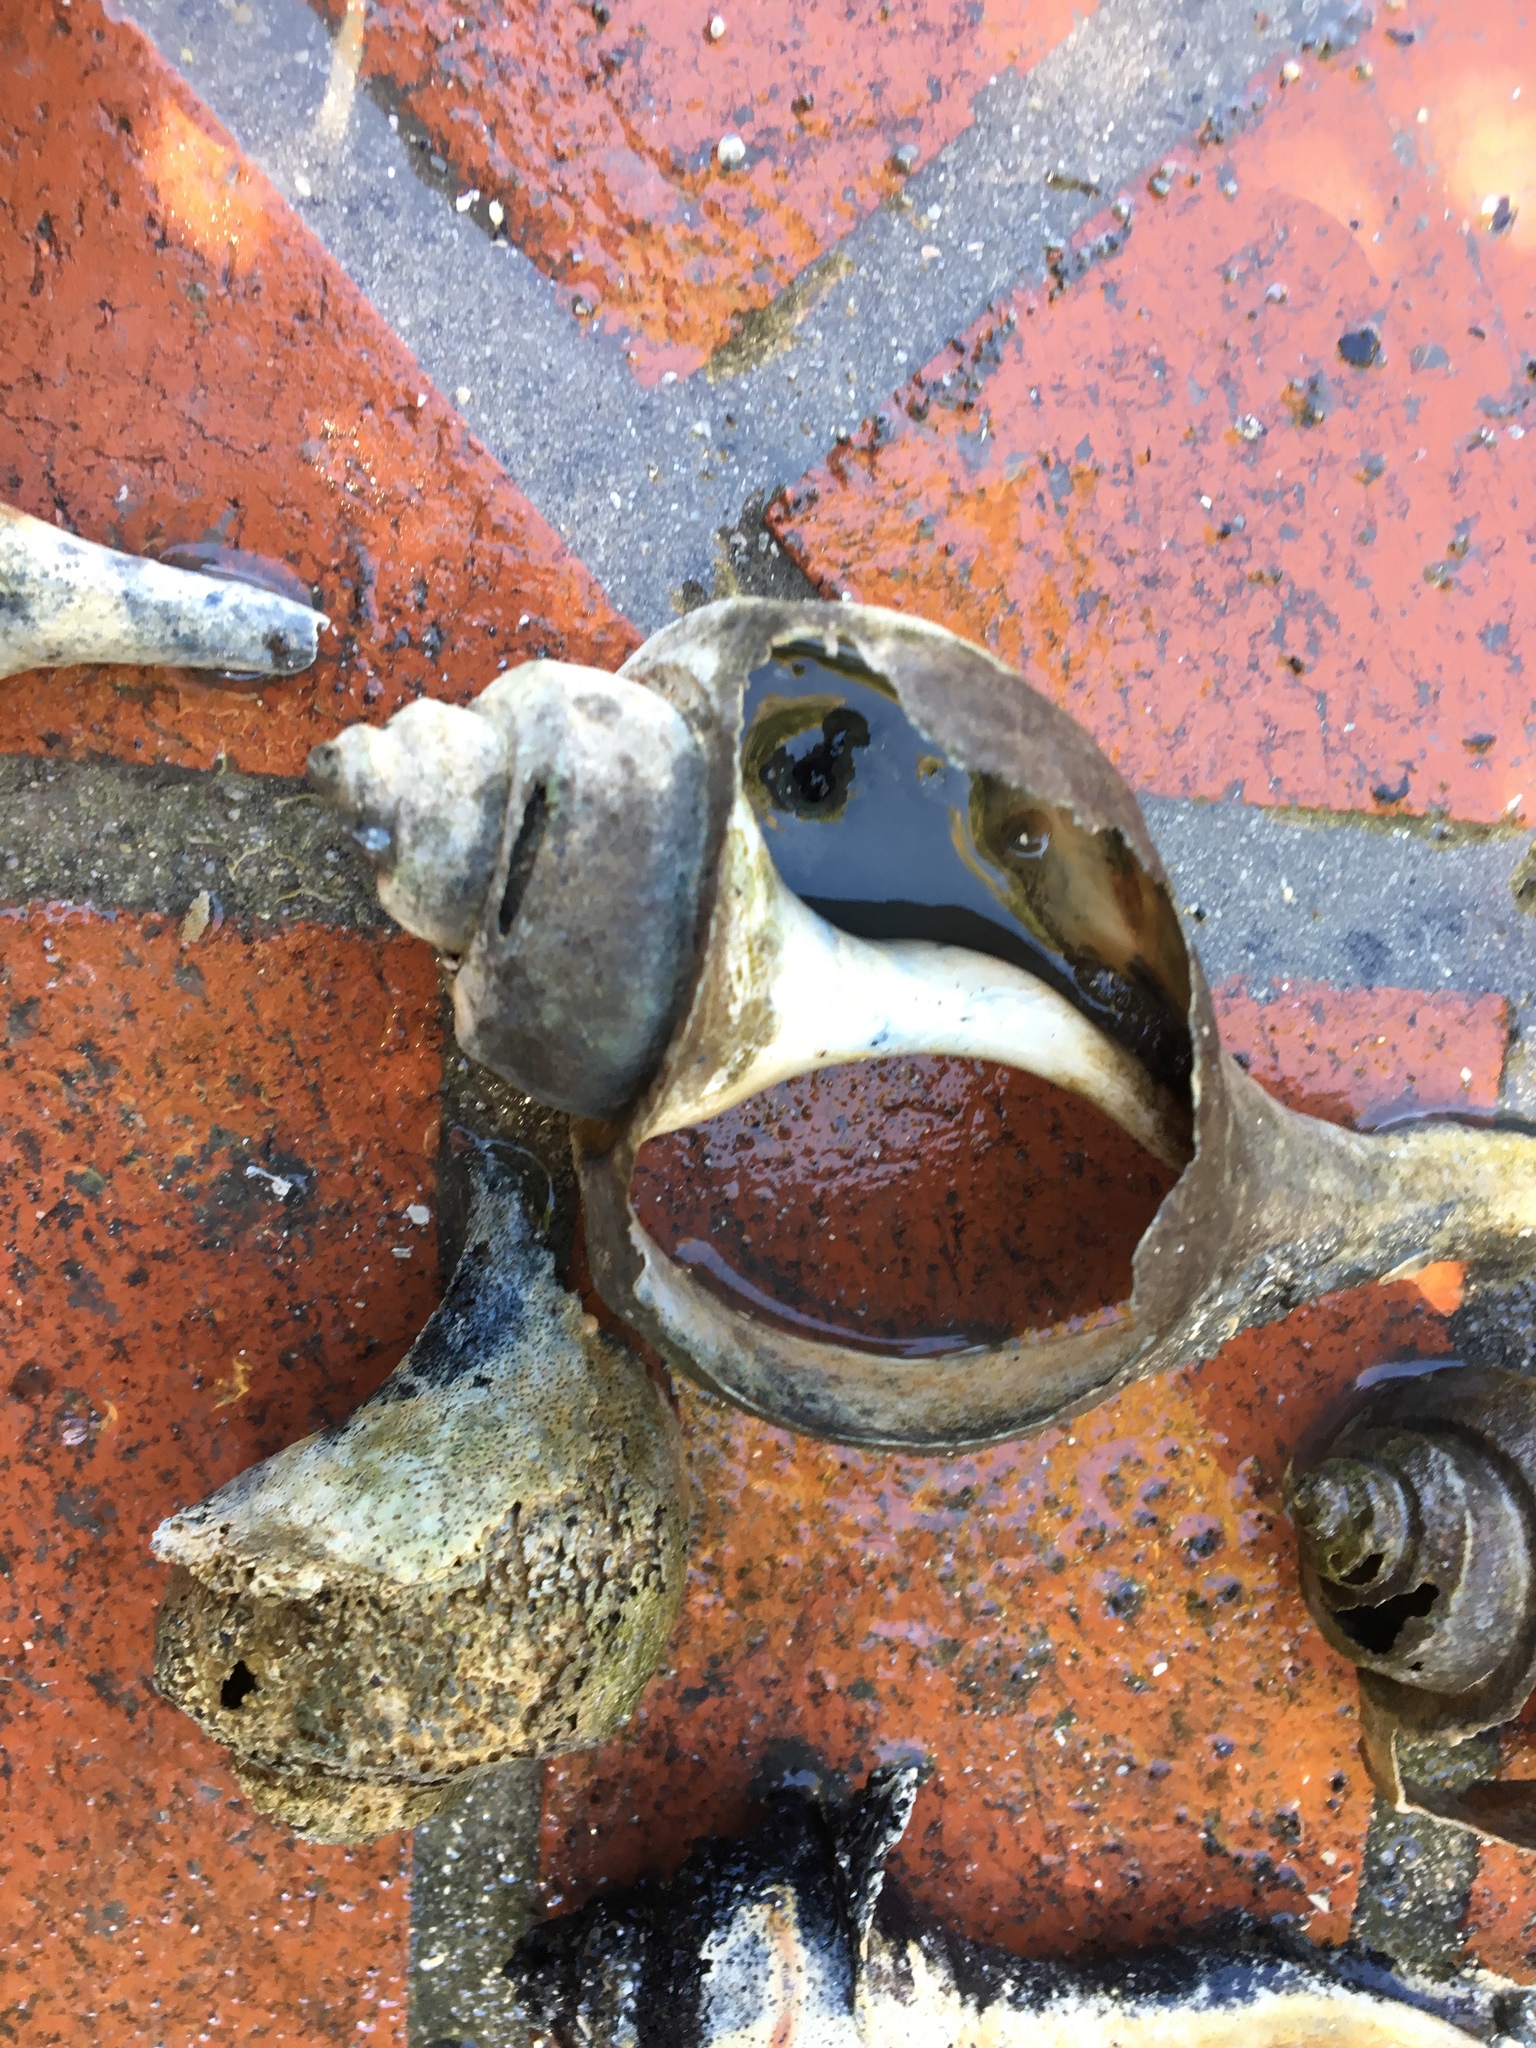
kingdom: Animalia
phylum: Mollusca
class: Gastropoda
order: Neogastropoda
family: Busyconidae
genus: Busycotypus
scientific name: Busycotypus canaliculatus
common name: Channeled whelk
